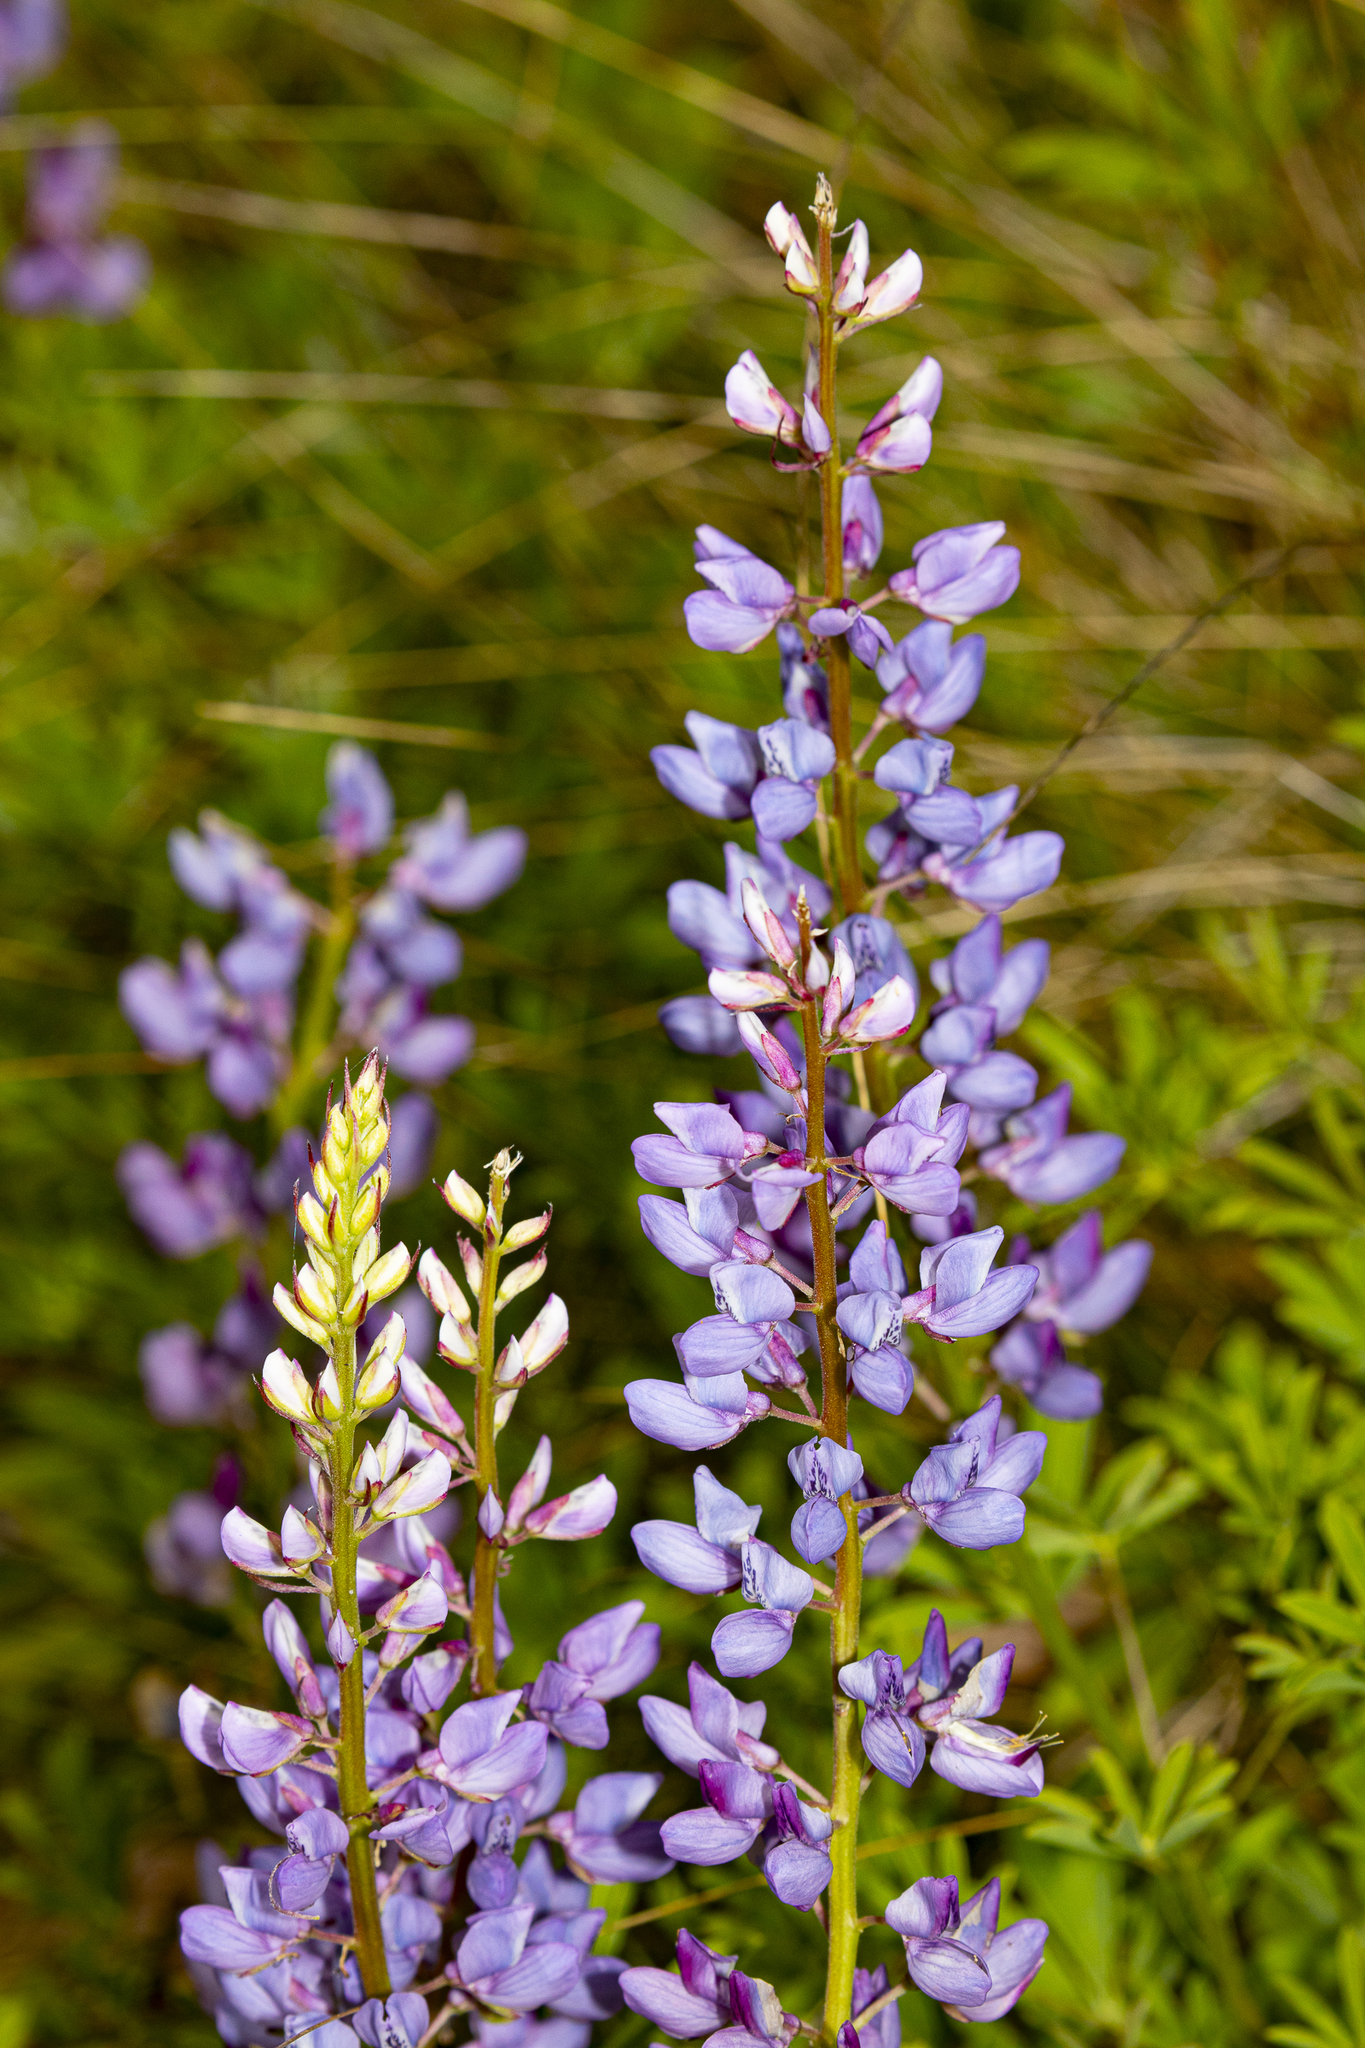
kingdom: Plantae
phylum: Tracheophyta
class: Magnoliopsida
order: Fabales
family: Fabaceae
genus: Lupinus
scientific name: Lupinus perennis
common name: Sundial lupine
